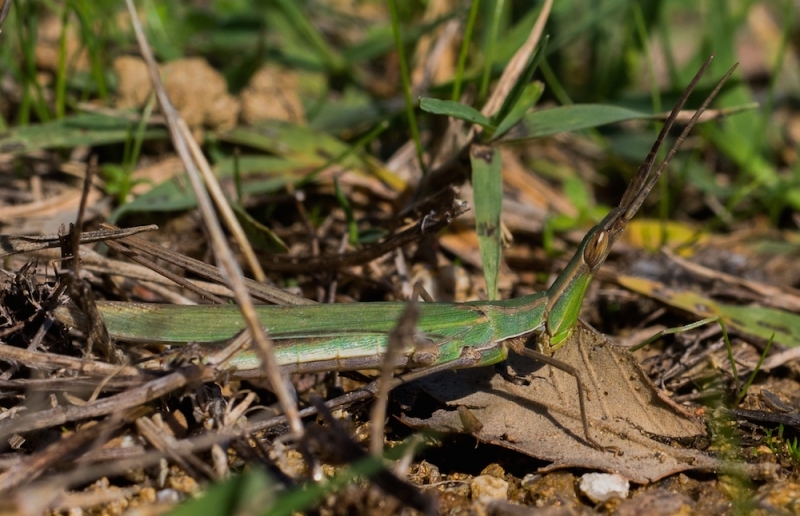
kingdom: Animalia
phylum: Arthropoda
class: Insecta
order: Orthoptera
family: Acrididae
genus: Acrida
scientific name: Acrida ungarica
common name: Common cone-headed grasshopper
